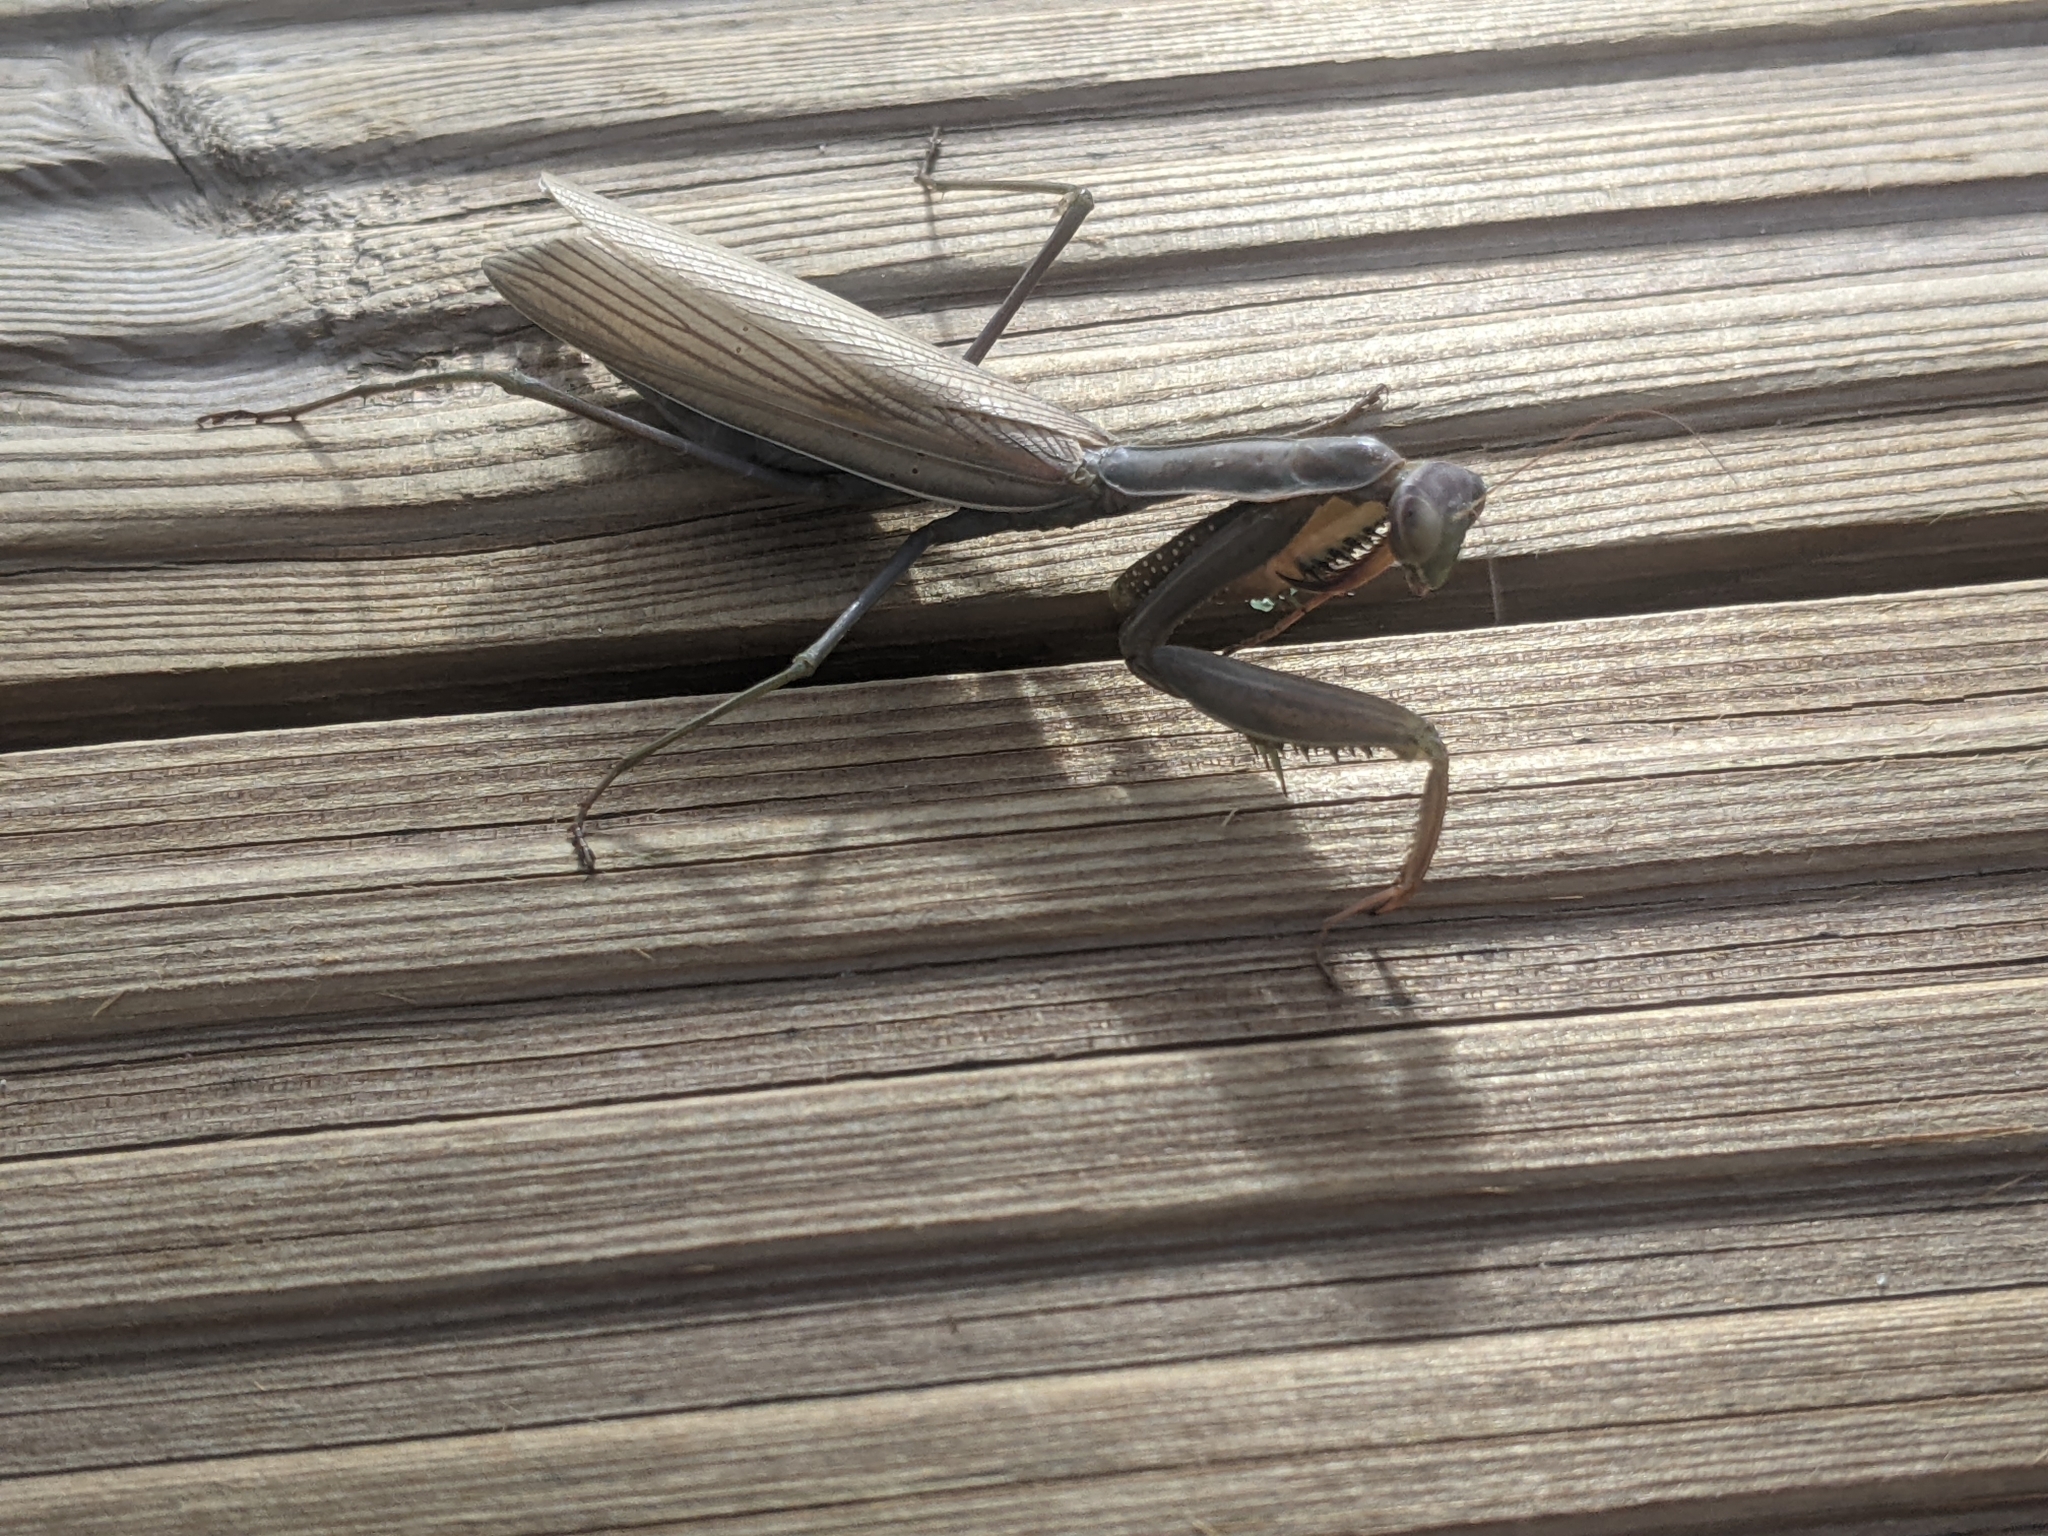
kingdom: Animalia
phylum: Arthropoda
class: Insecta
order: Mantodea
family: Mantidae
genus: Mantis
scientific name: Mantis religiosa
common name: Praying mantis
